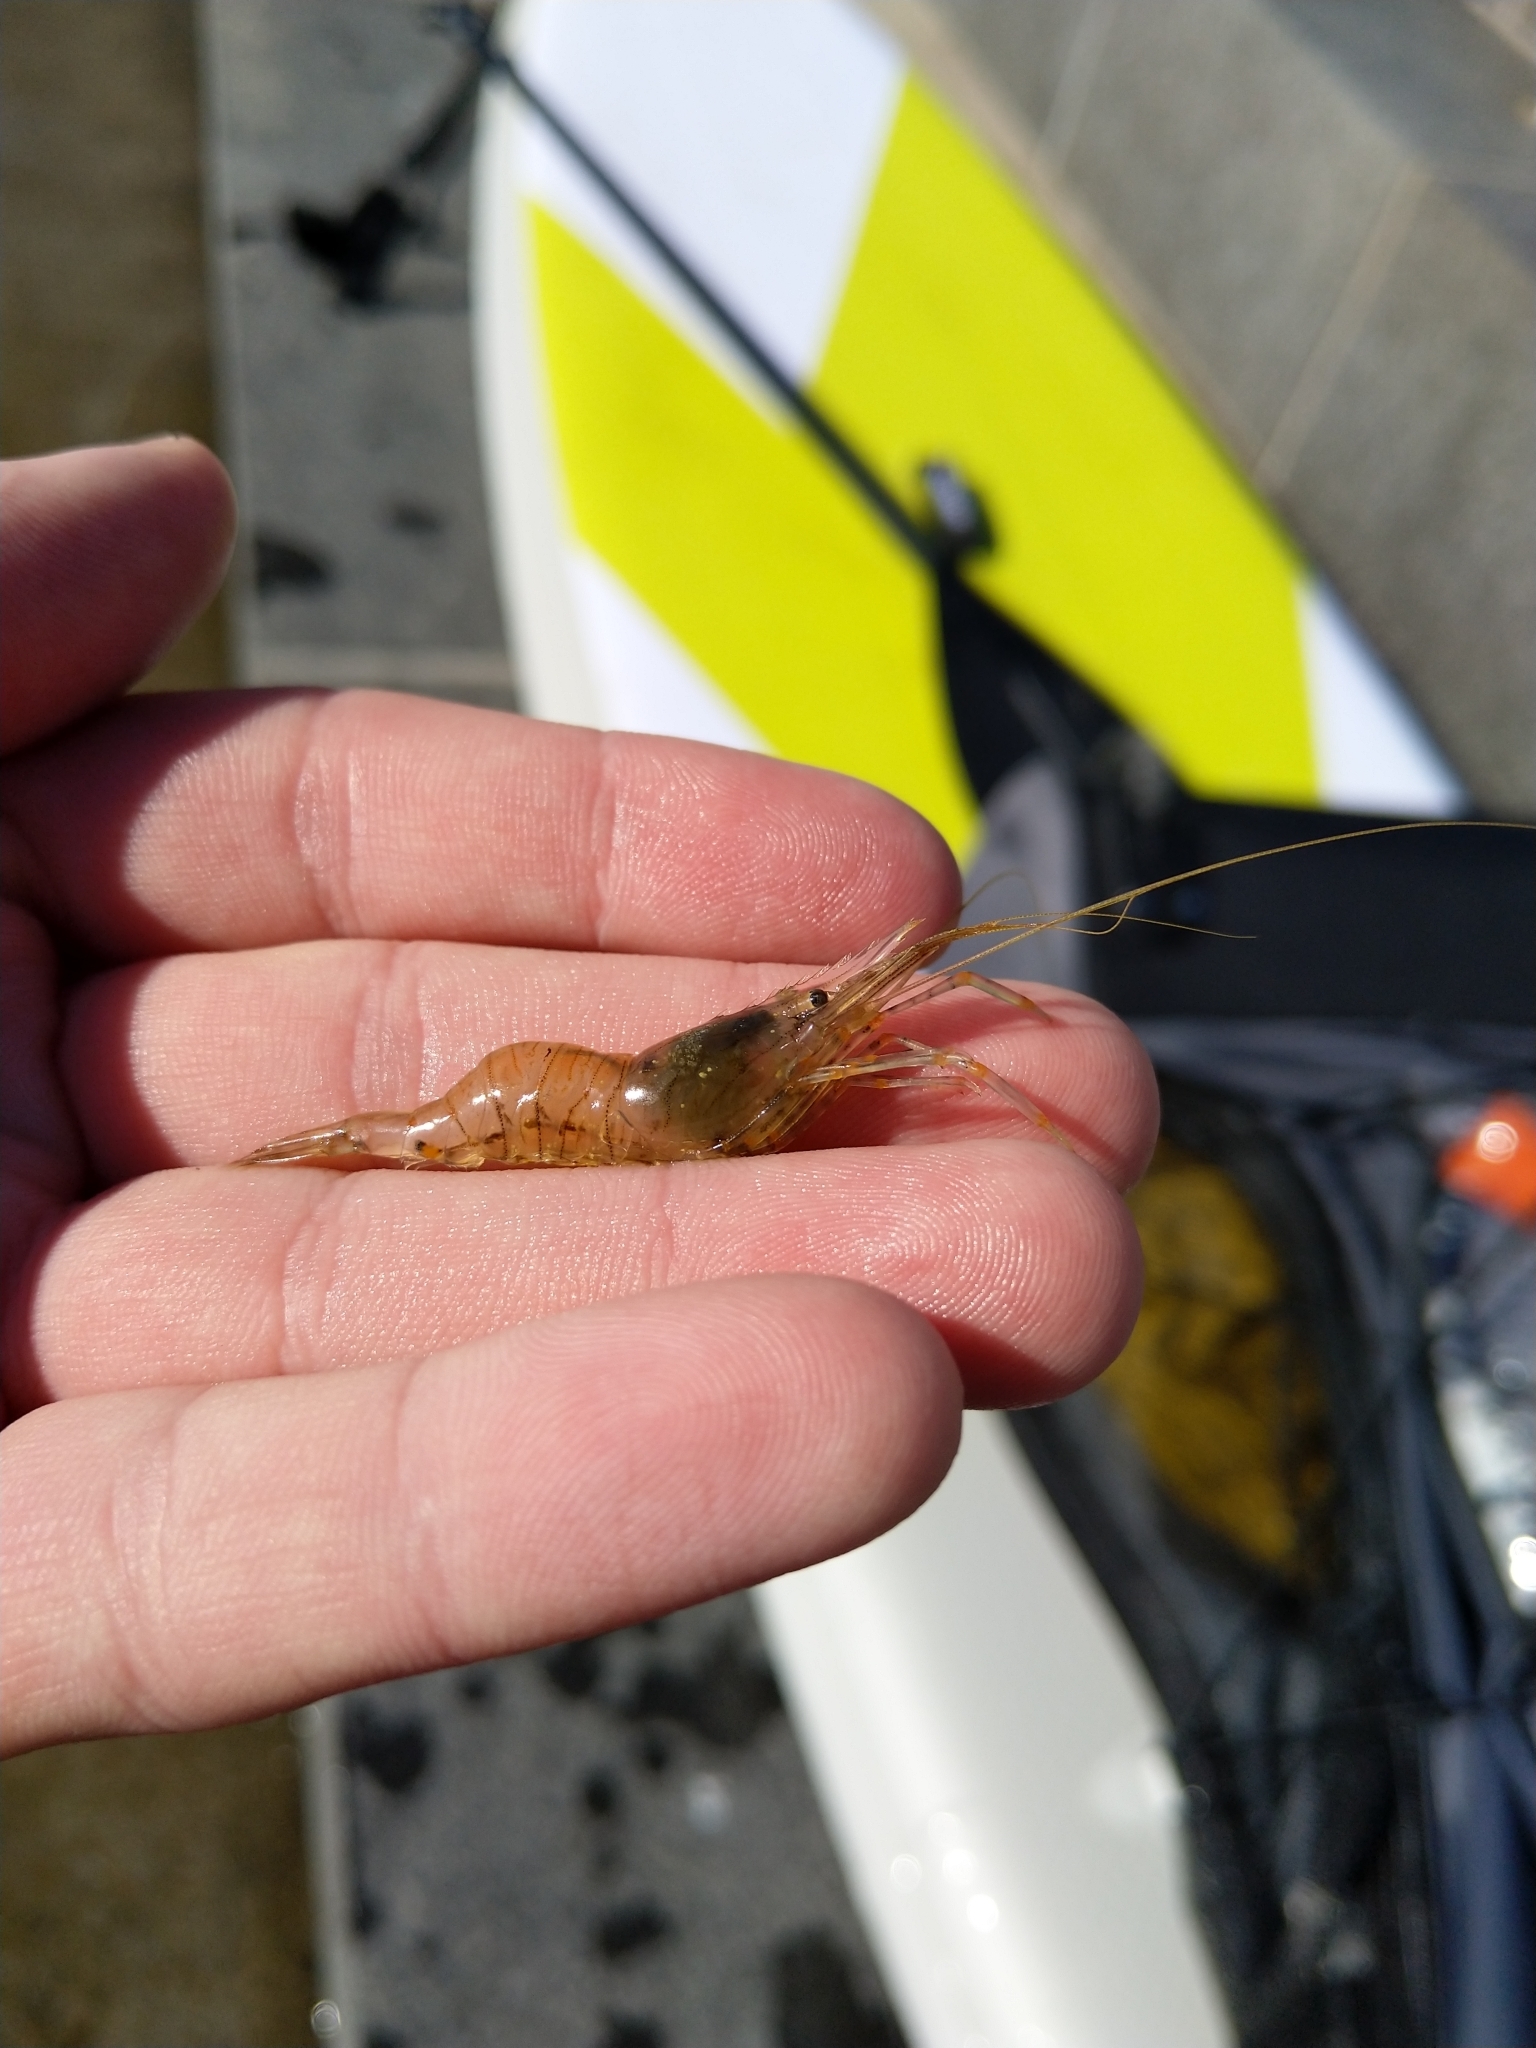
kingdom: Animalia
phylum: Arthropoda
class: Malacostraca
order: Decapoda
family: Palaemonidae
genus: Palaemon
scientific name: Palaemon elegans
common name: Grass prawm
